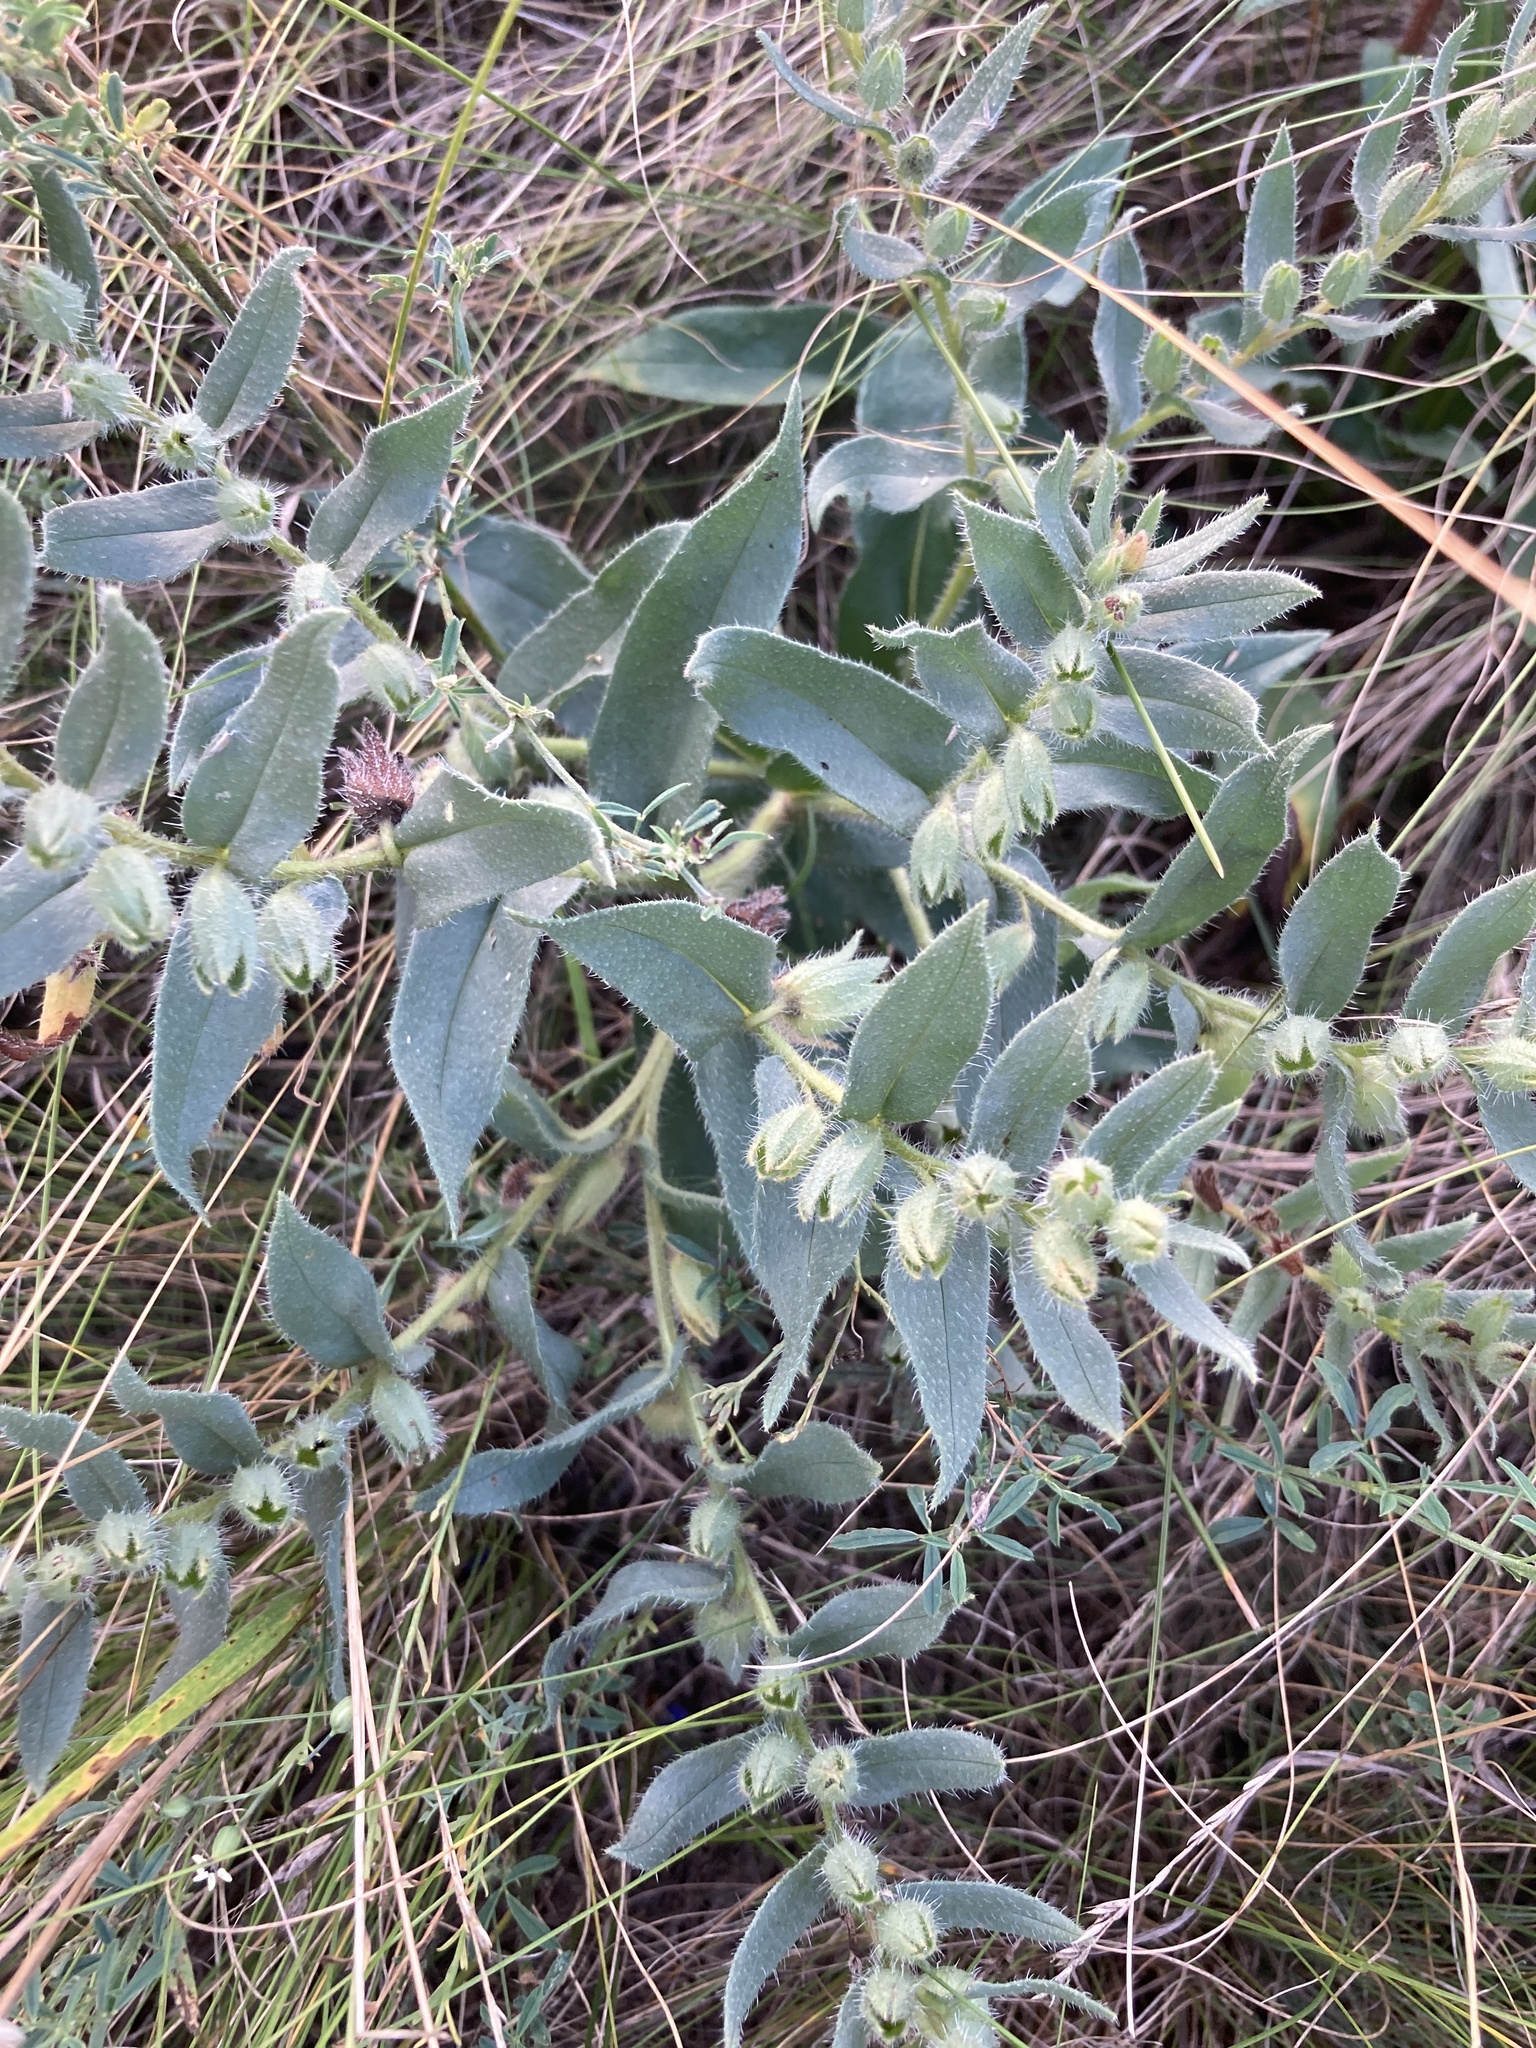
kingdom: Plantae
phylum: Tracheophyta
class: Magnoliopsida
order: Boraginales
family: Boraginaceae
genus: Nonea
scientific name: Nonea pulla
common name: Brown nonea
